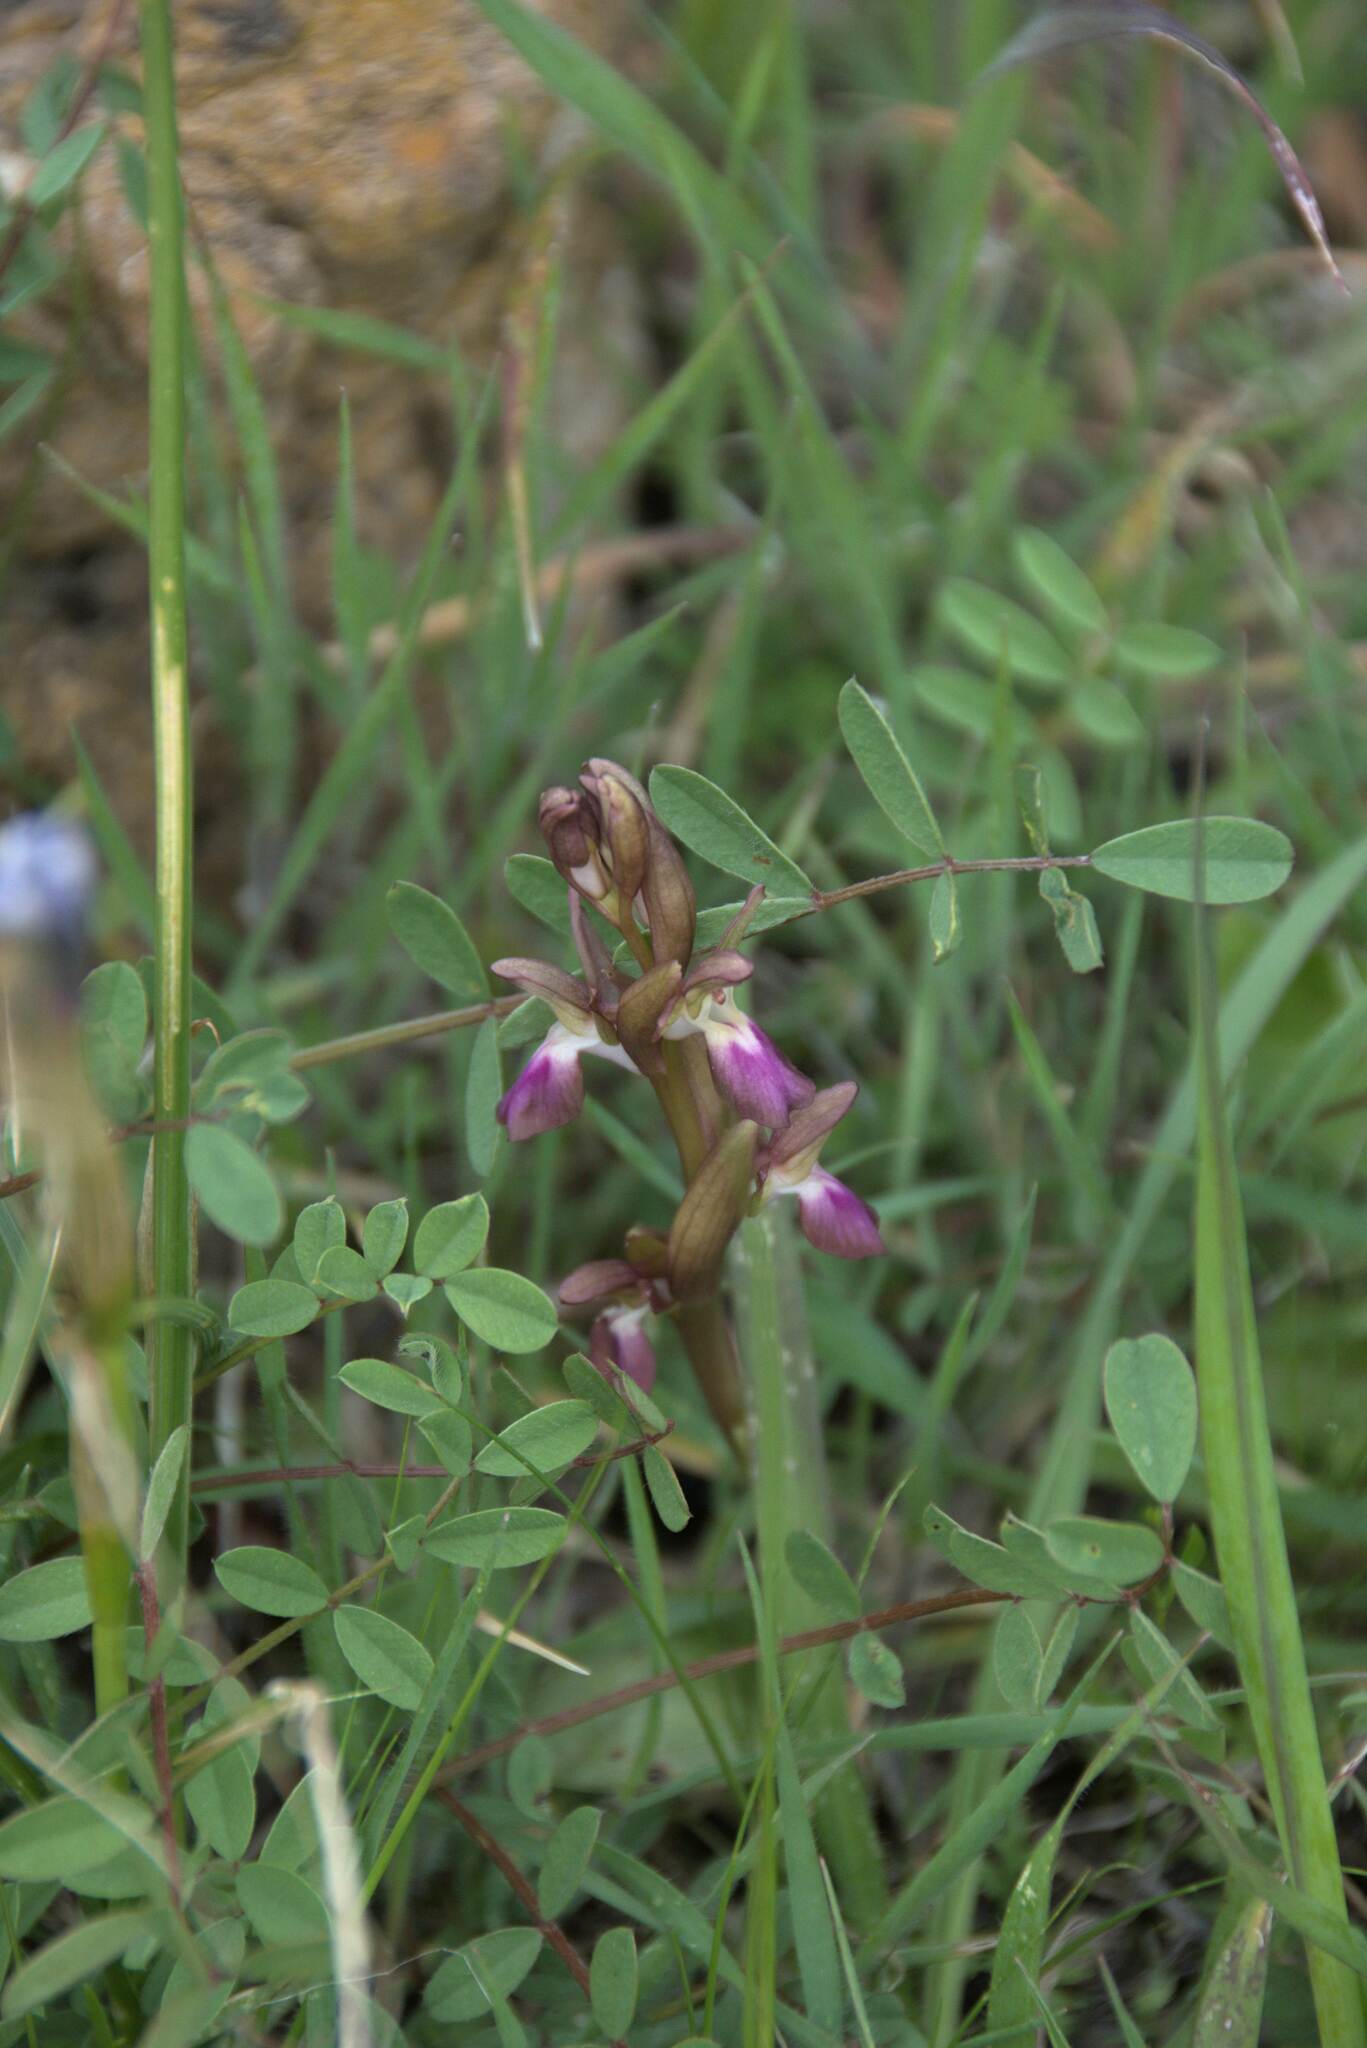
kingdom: Plantae
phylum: Tracheophyta
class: Liliopsida
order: Asparagales
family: Orchidaceae
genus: Anacamptis
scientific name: Anacamptis collina
